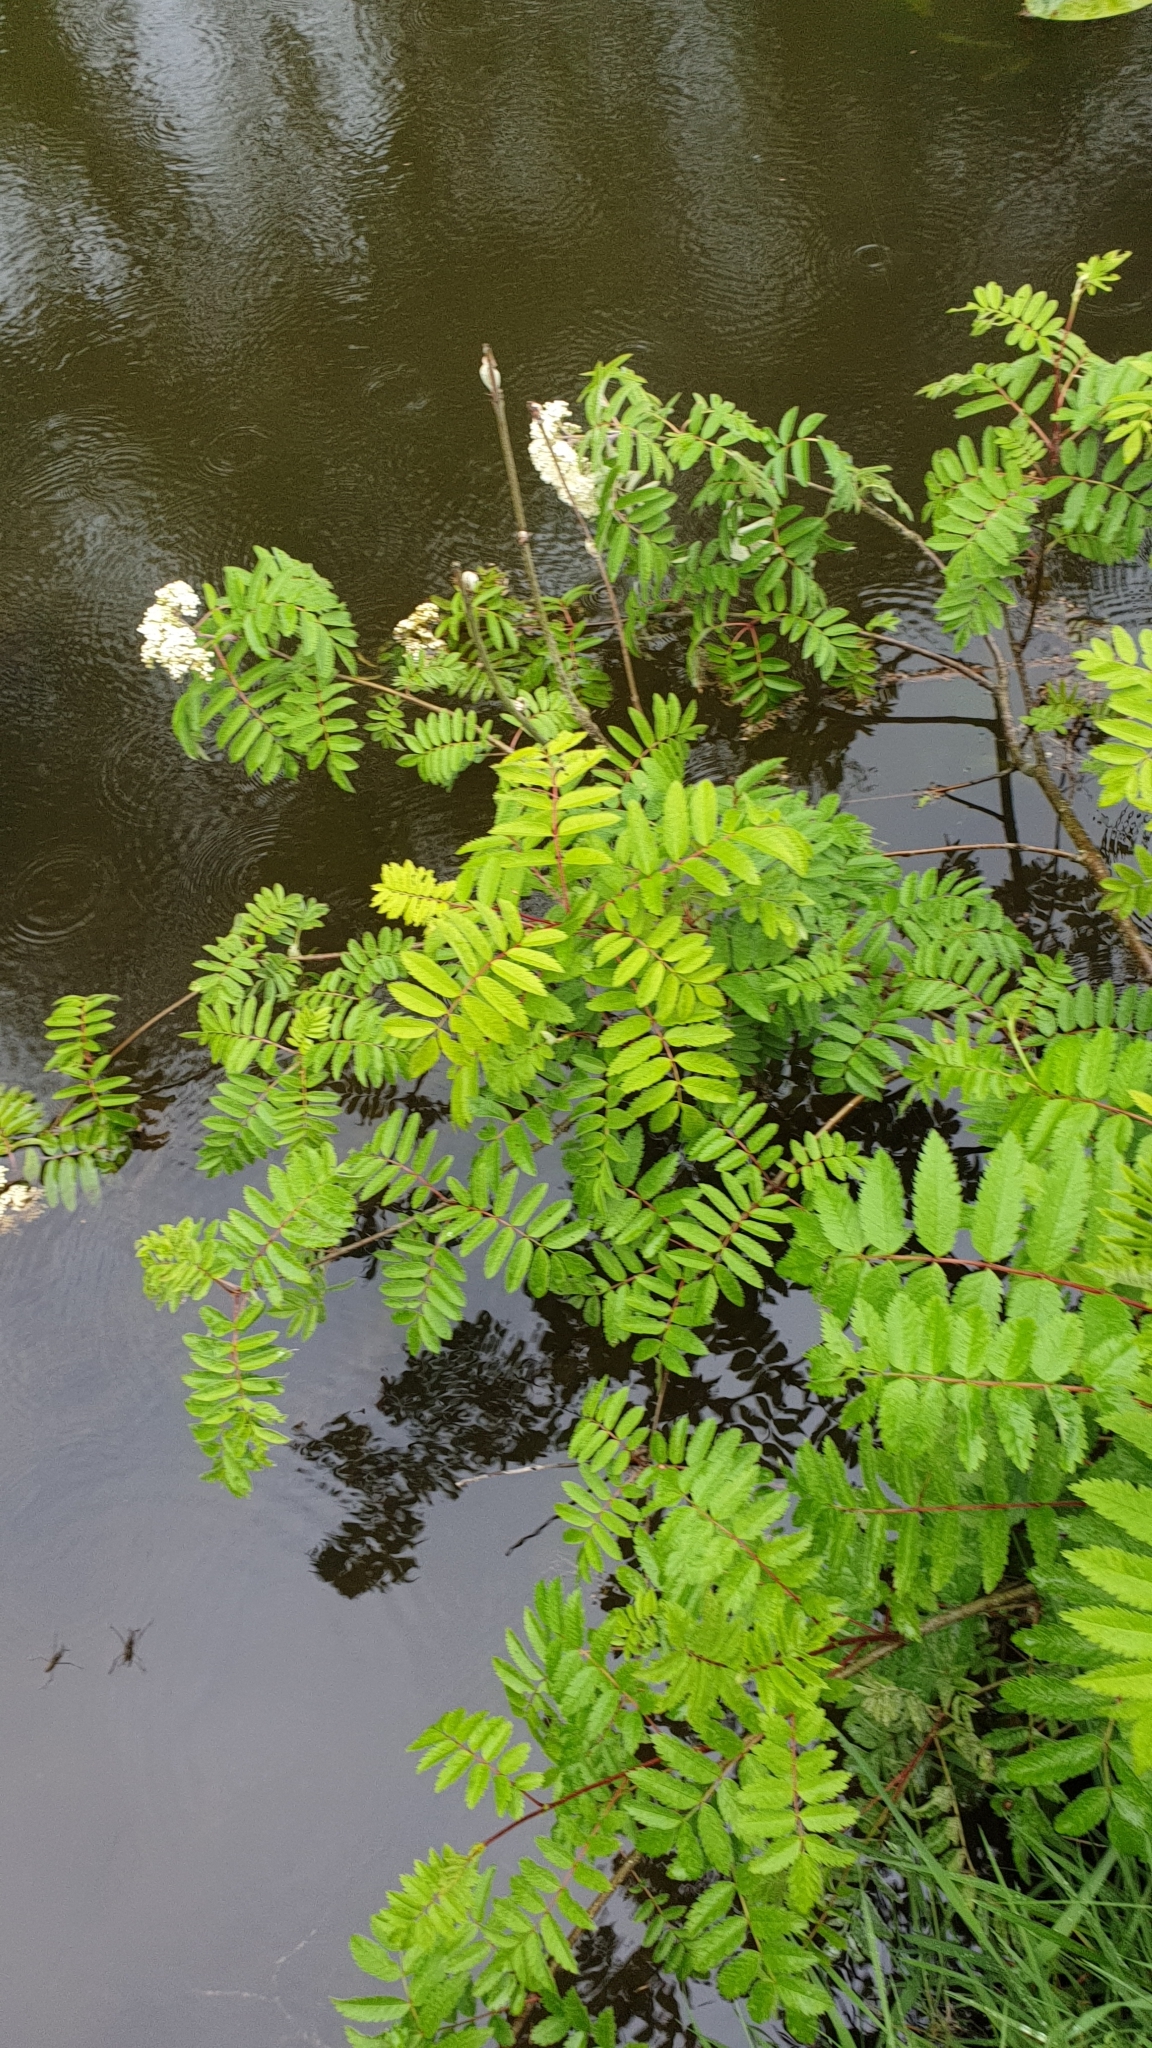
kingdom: Plantae
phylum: Tracheophyta
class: Magnoliopsida
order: Rosales
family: Rosaceae
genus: Sorbus
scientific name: Sorbus aucuparia
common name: Rowan
